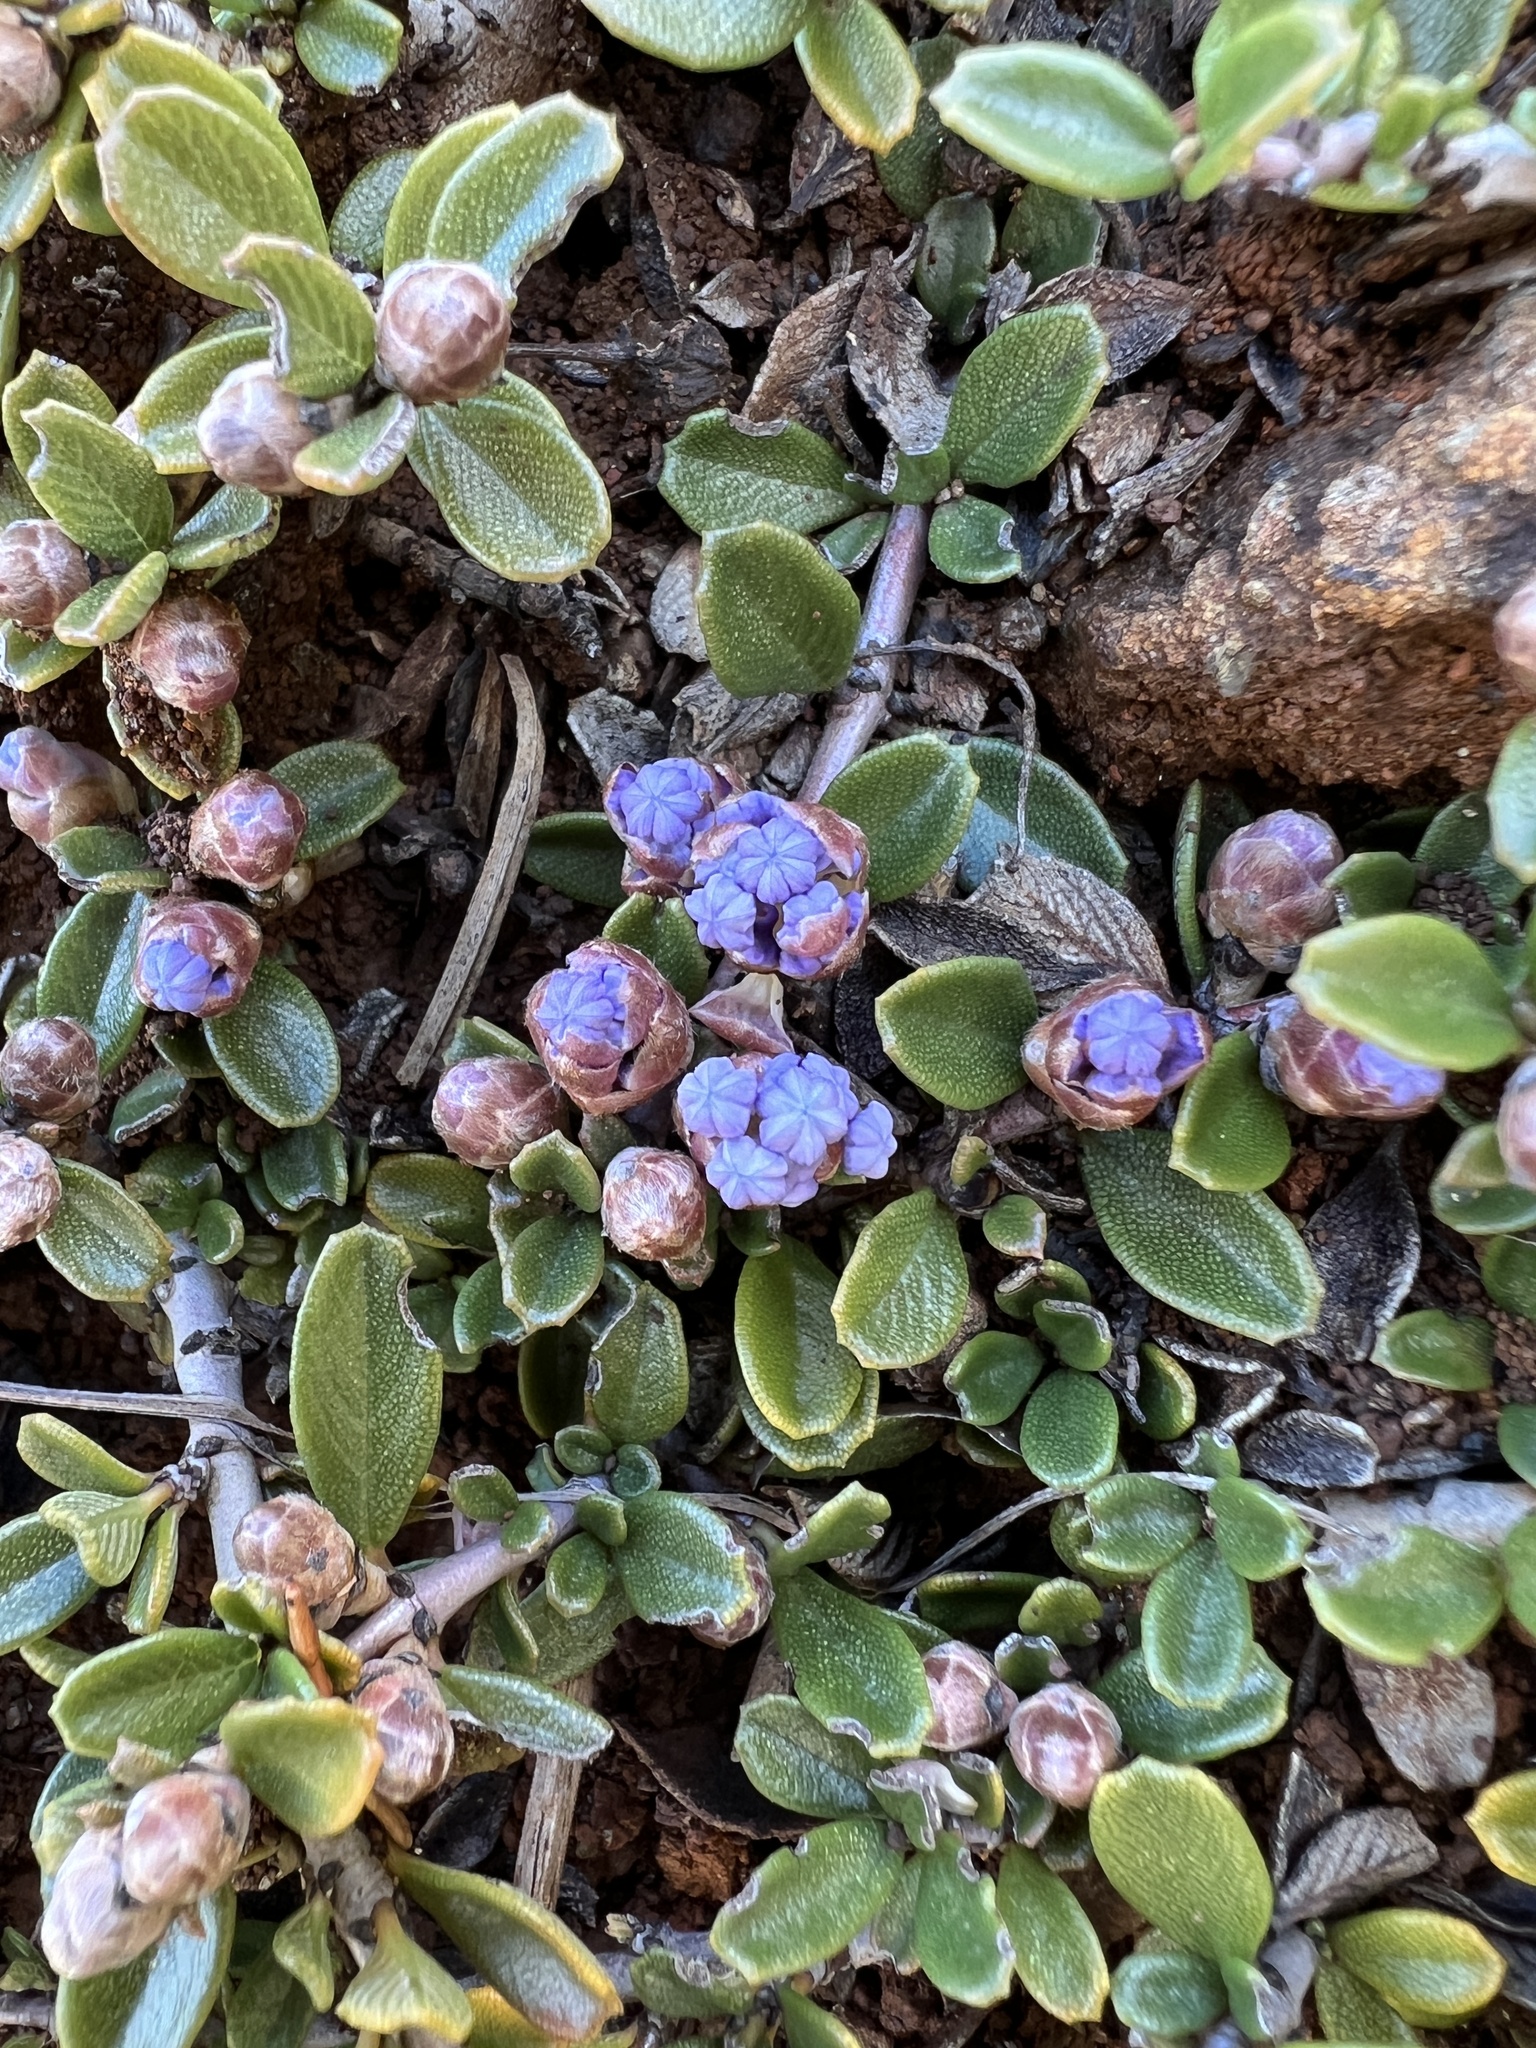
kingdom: Plantae
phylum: Tracheophyta
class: Magnoliopsida
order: Rosales
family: Rhamnaceae
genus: Ceanothus
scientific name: Ceanothus pumilus
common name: Siskiyou-mat
